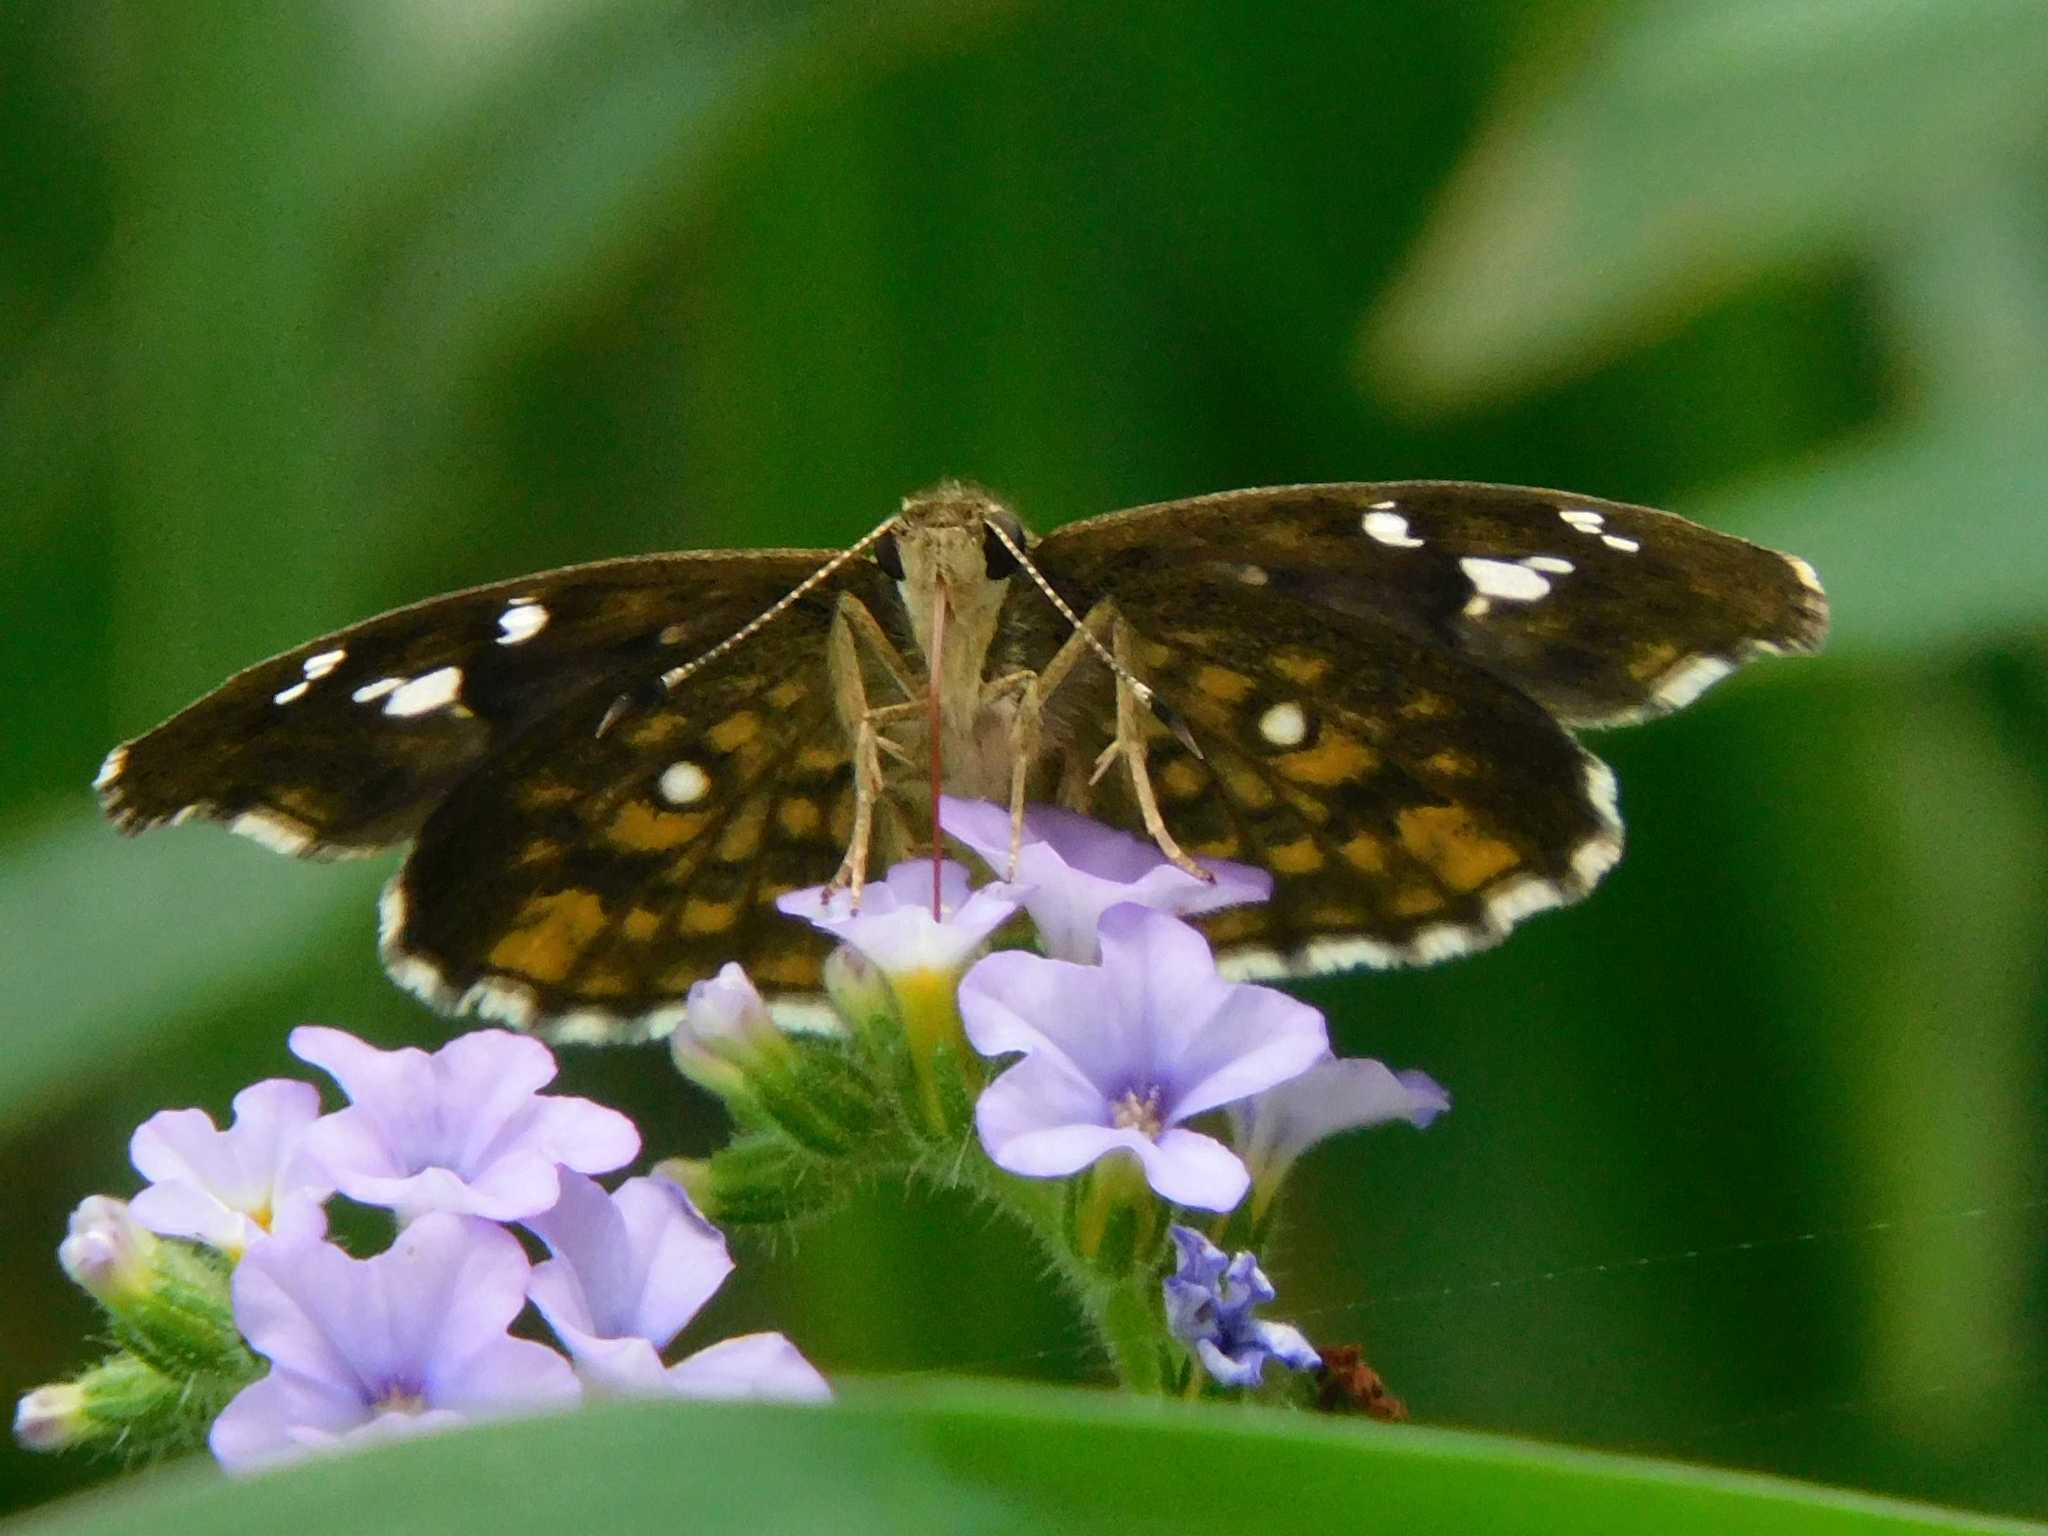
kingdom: Animalia
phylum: Arthropoda
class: Insecta
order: Lepidoptera
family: Hesperiidae
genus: Sarangesa
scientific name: Sarangesa motozi
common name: Forest elfin
